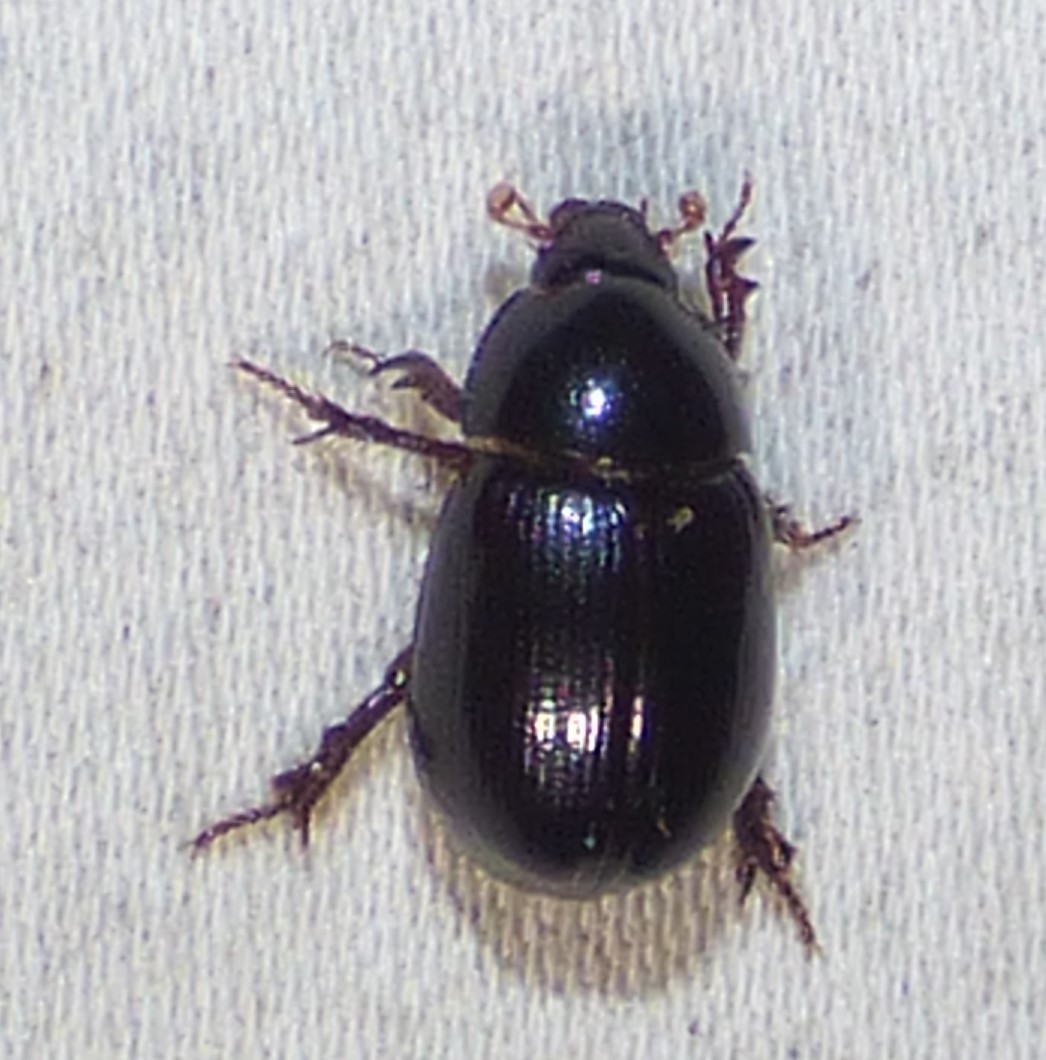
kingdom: Animalia
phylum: Arthropoda
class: Insecta
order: Coleoptera
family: Hybosoridae
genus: Hybosorus
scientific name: Hybosorus illigeri
